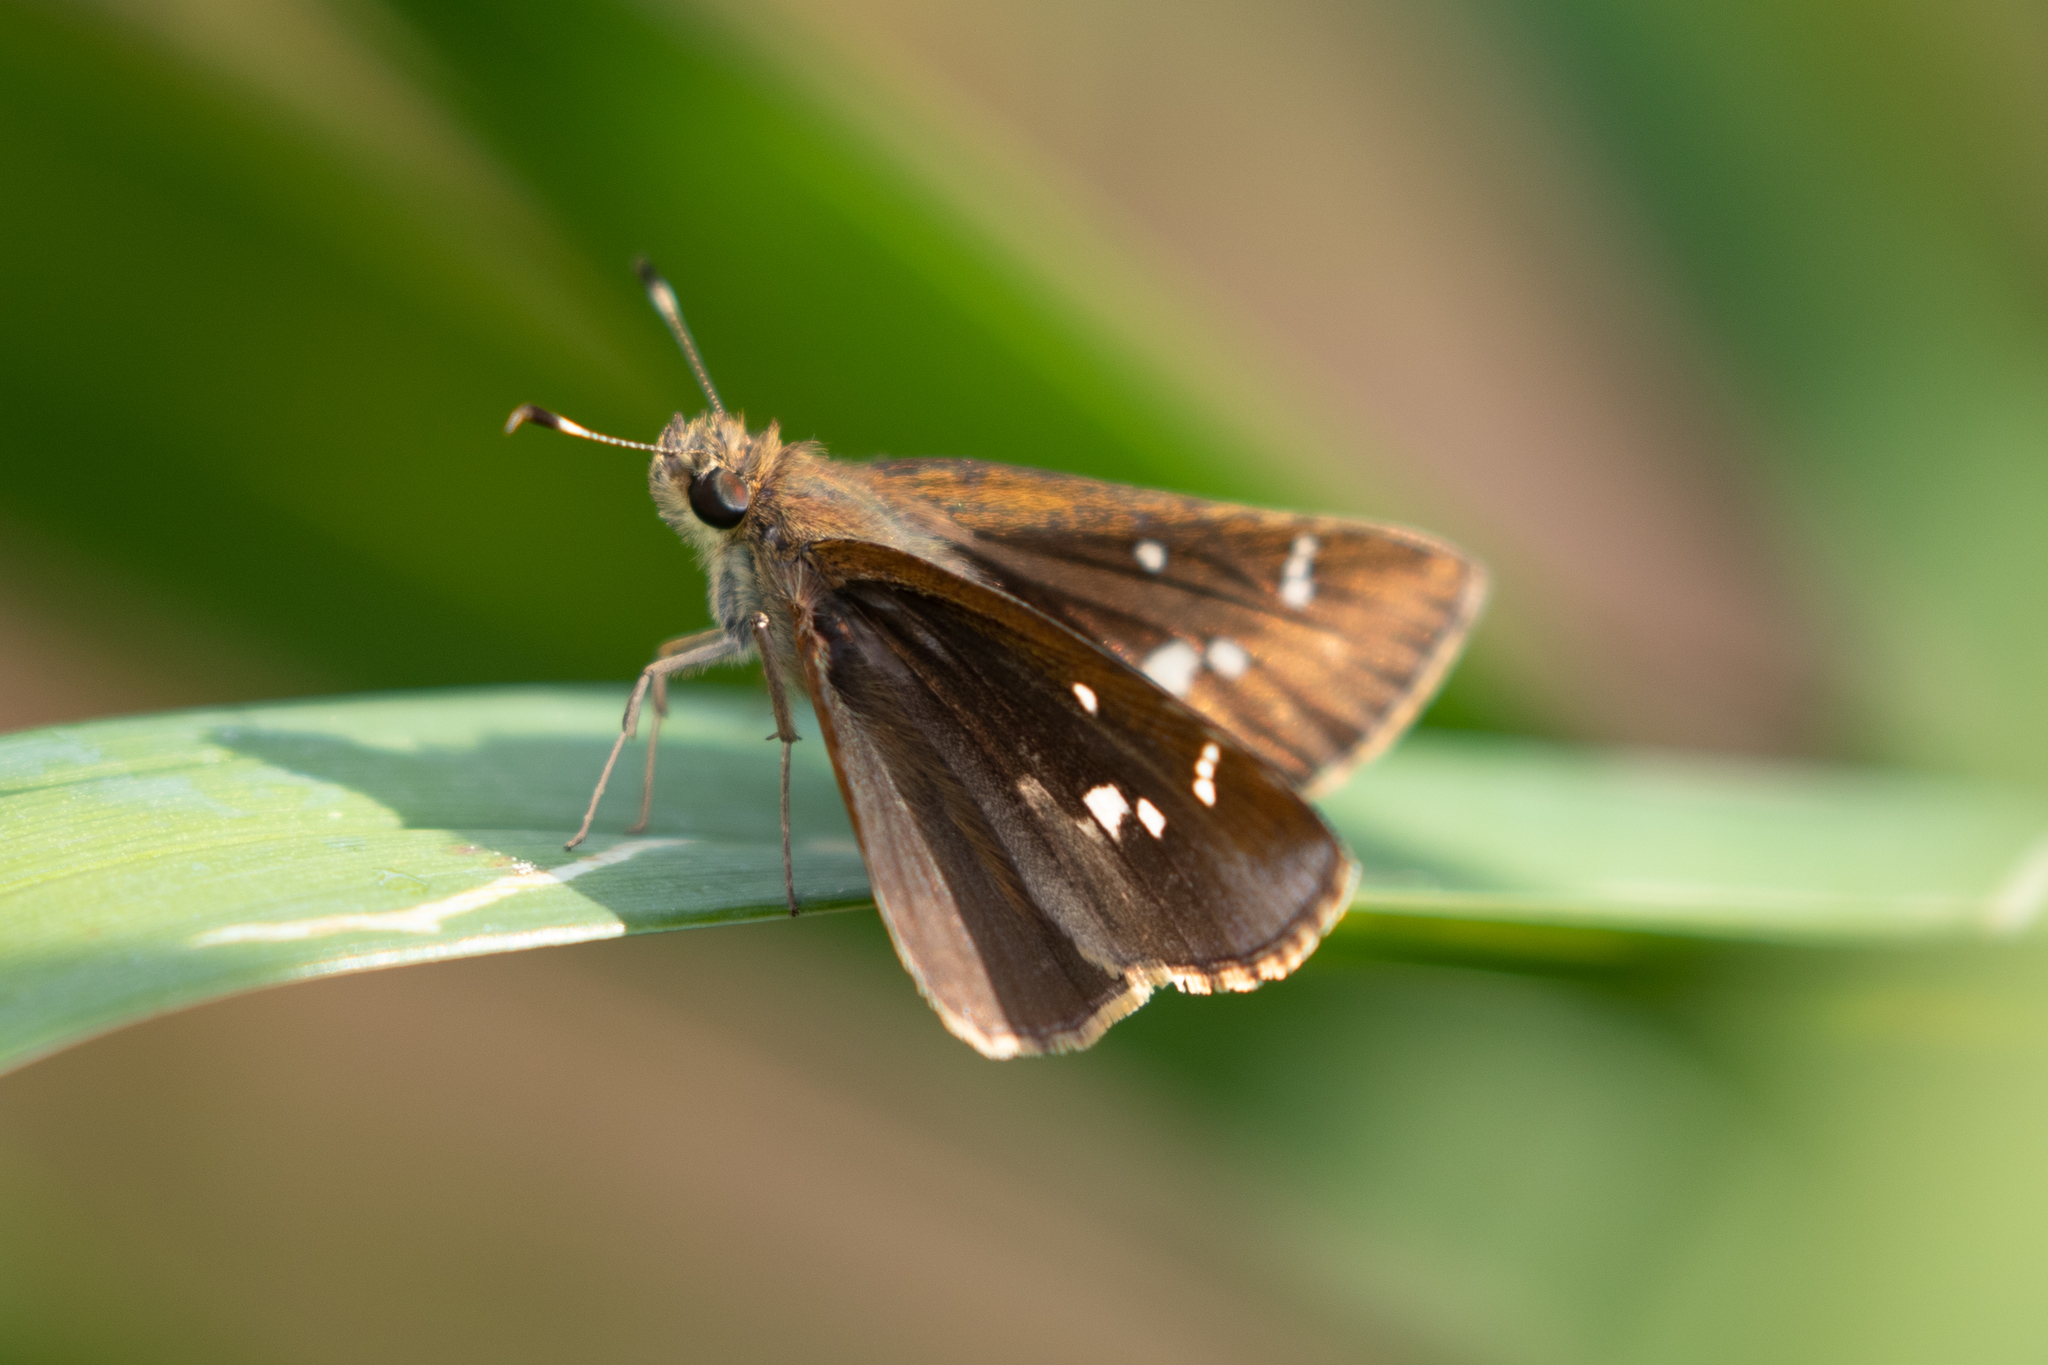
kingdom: Animalia
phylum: Arthropoda
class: Insecta
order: Lepidoptera
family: Hesperiidae
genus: Lerema
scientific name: Lerema accius
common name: Clouded skipper
